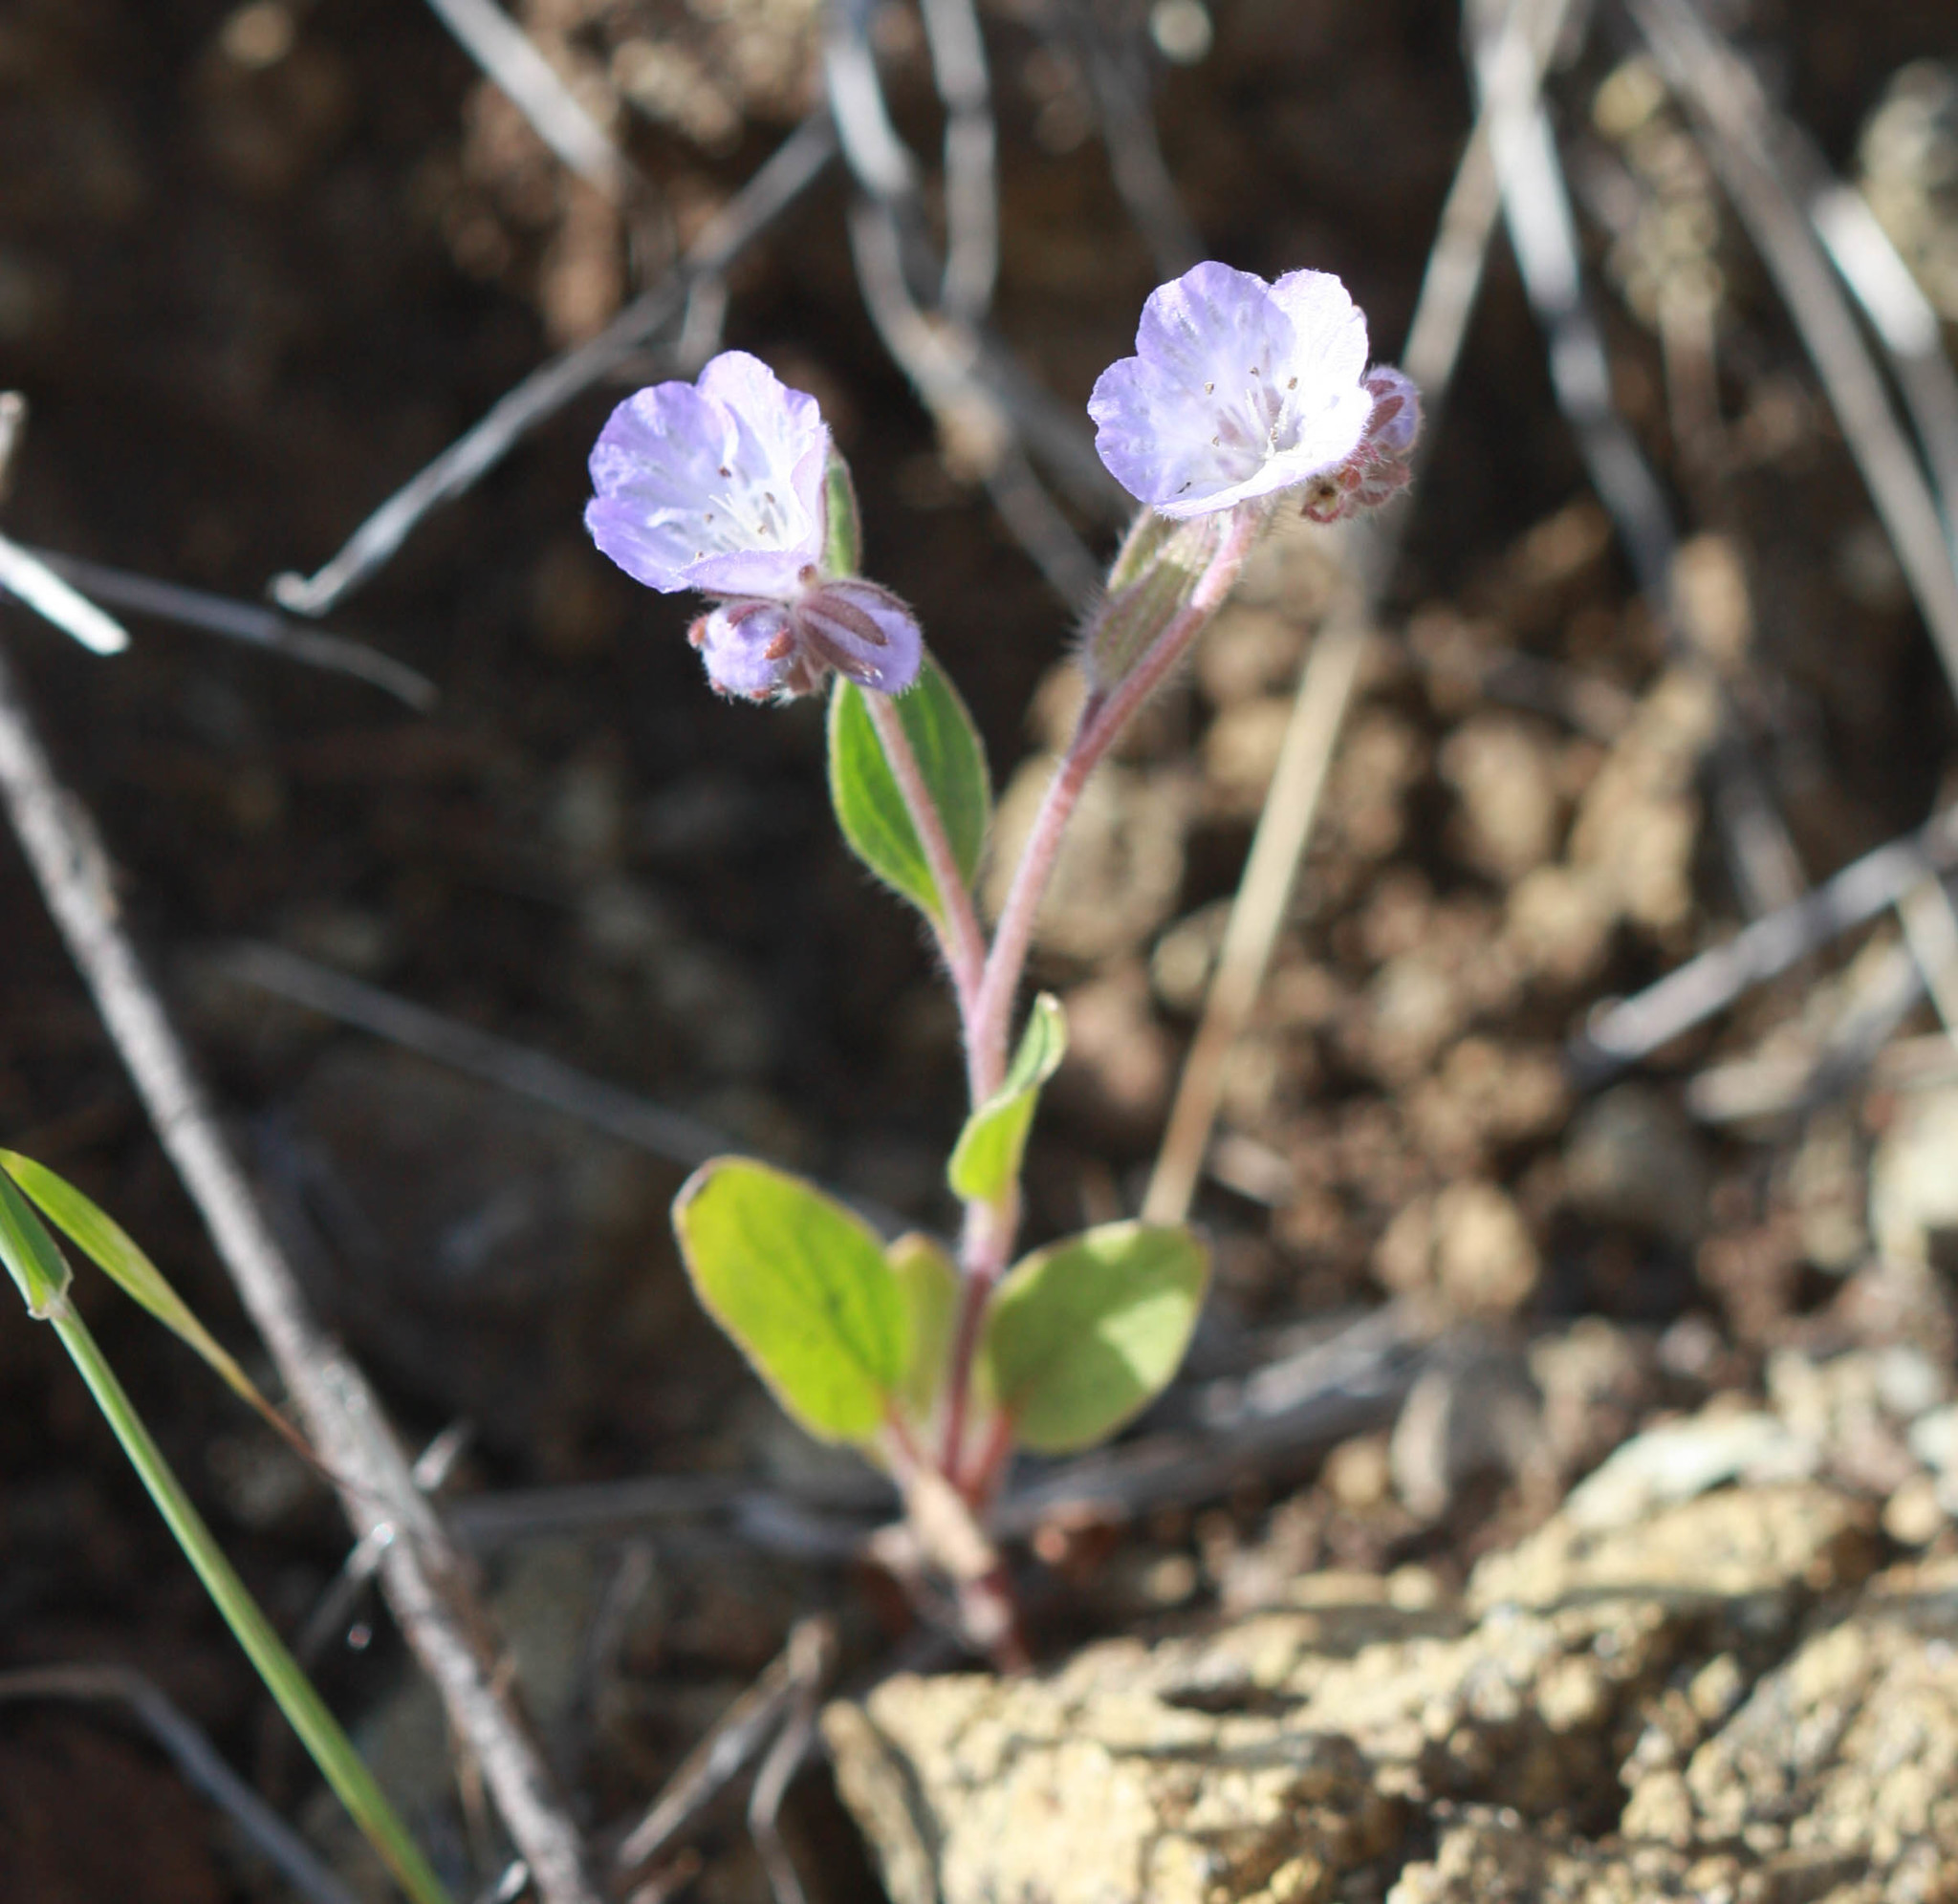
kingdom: Plantae
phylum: Tracheophyta
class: Magnoliopsida
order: Boraginales
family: Hydrophyllaceae
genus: Phacelia
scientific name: Phacelia divaricata
